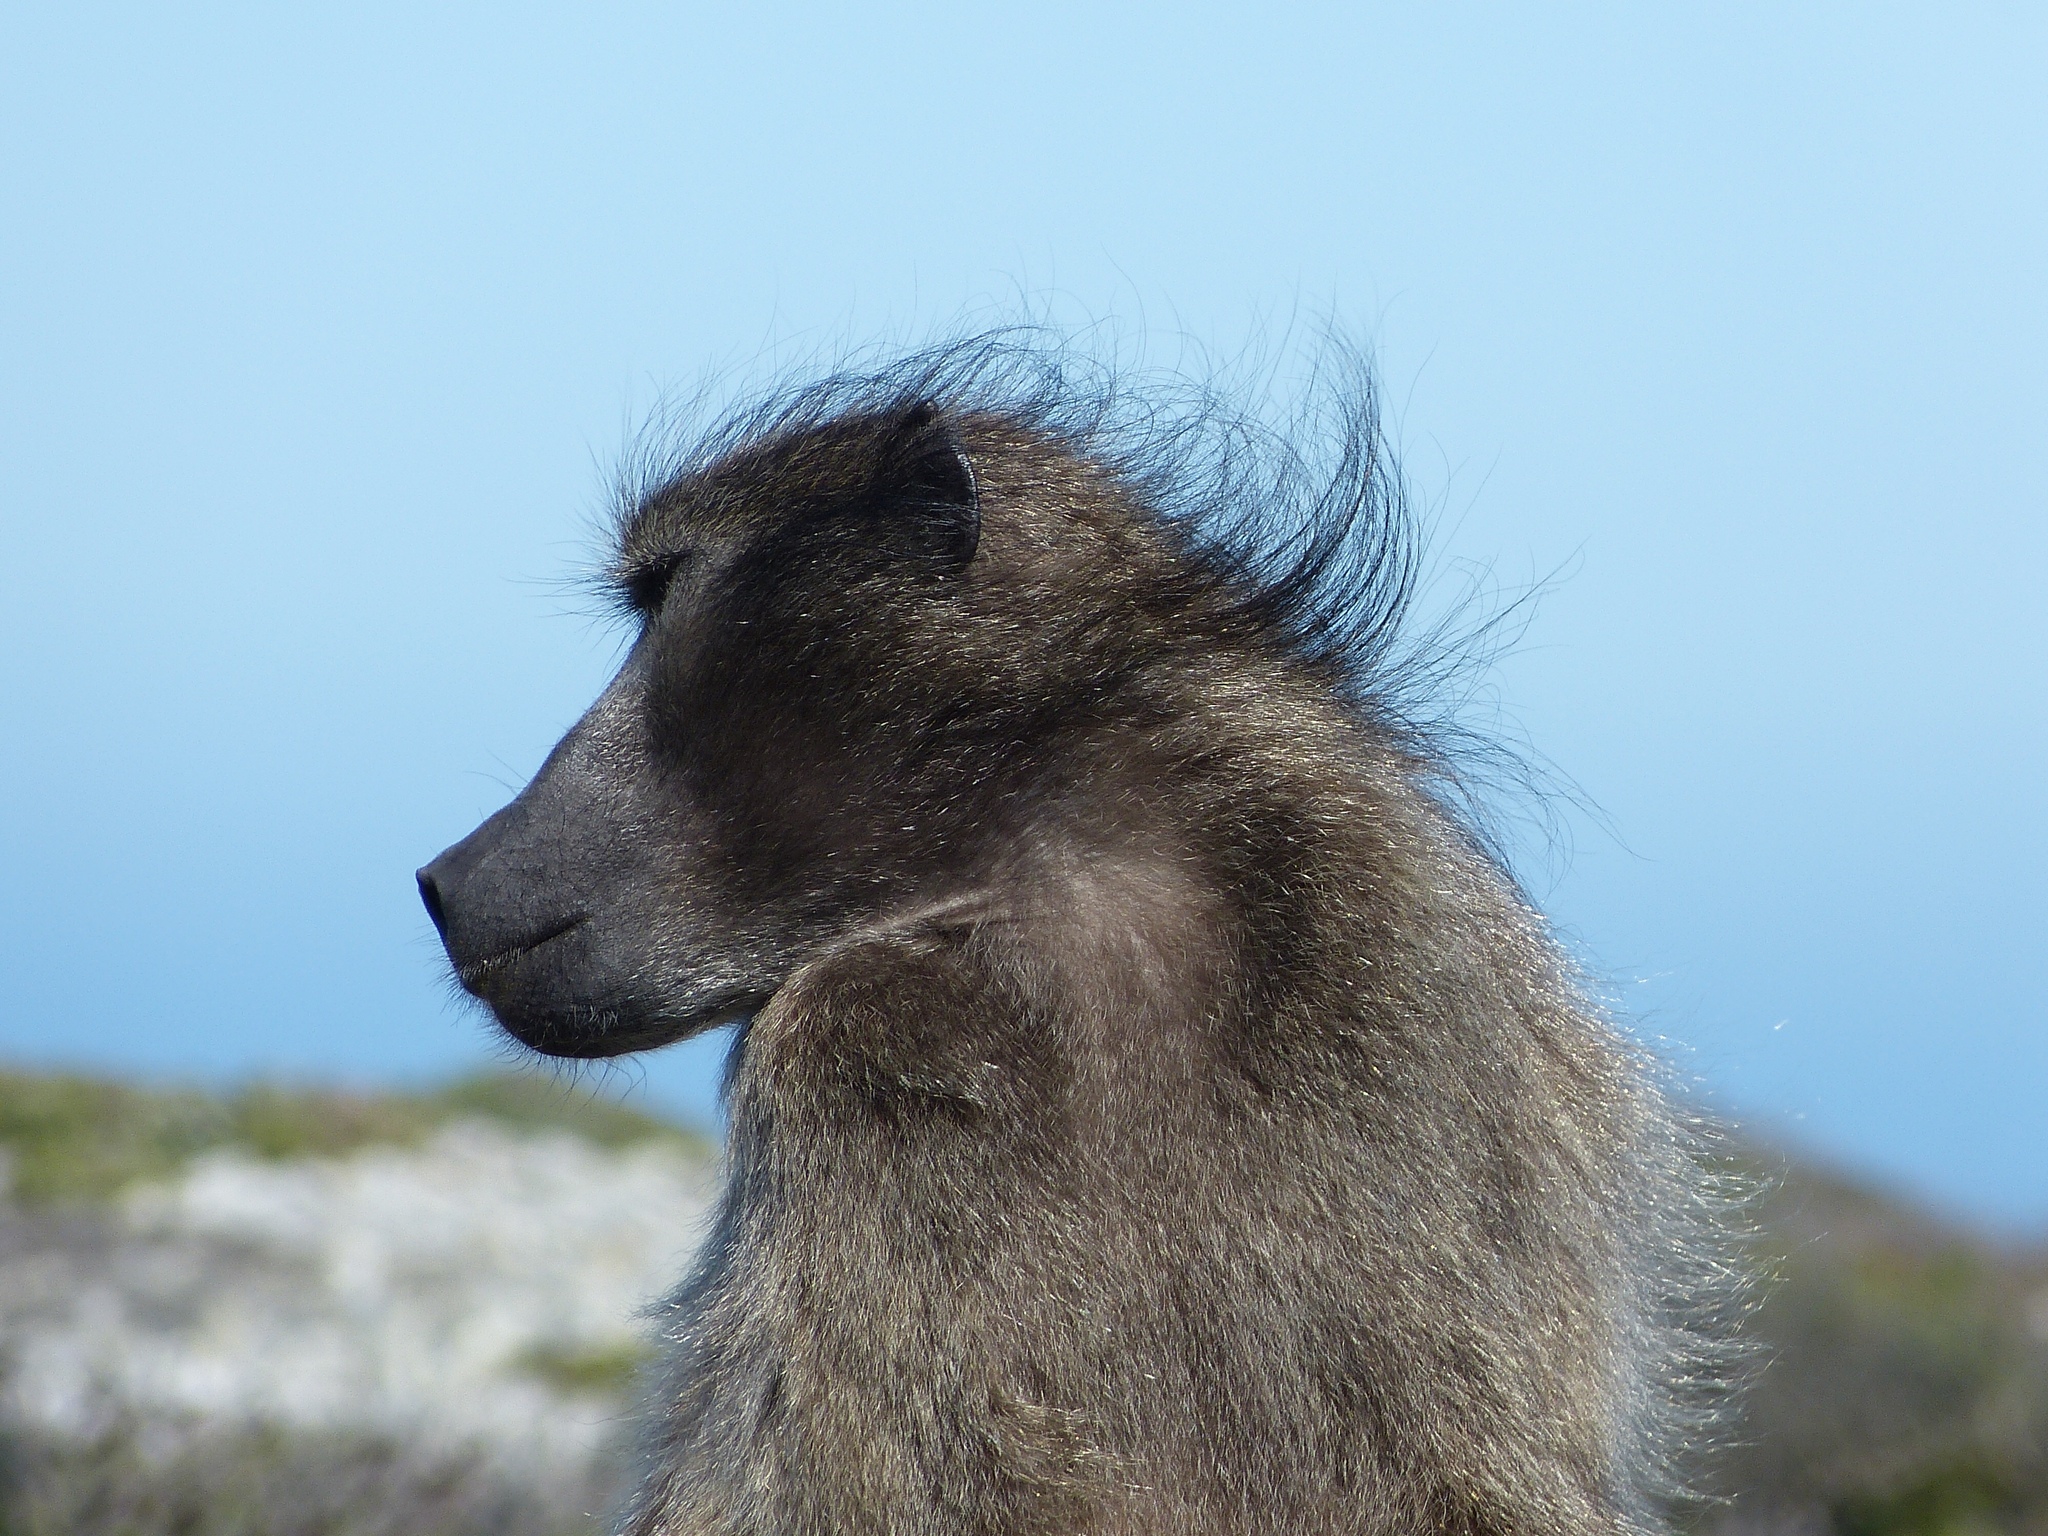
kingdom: Animalia
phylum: Chordata
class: Mammalia
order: Primates
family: Cercopithecidae
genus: Papio
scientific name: Papio ursinus
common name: Chacma baboon
